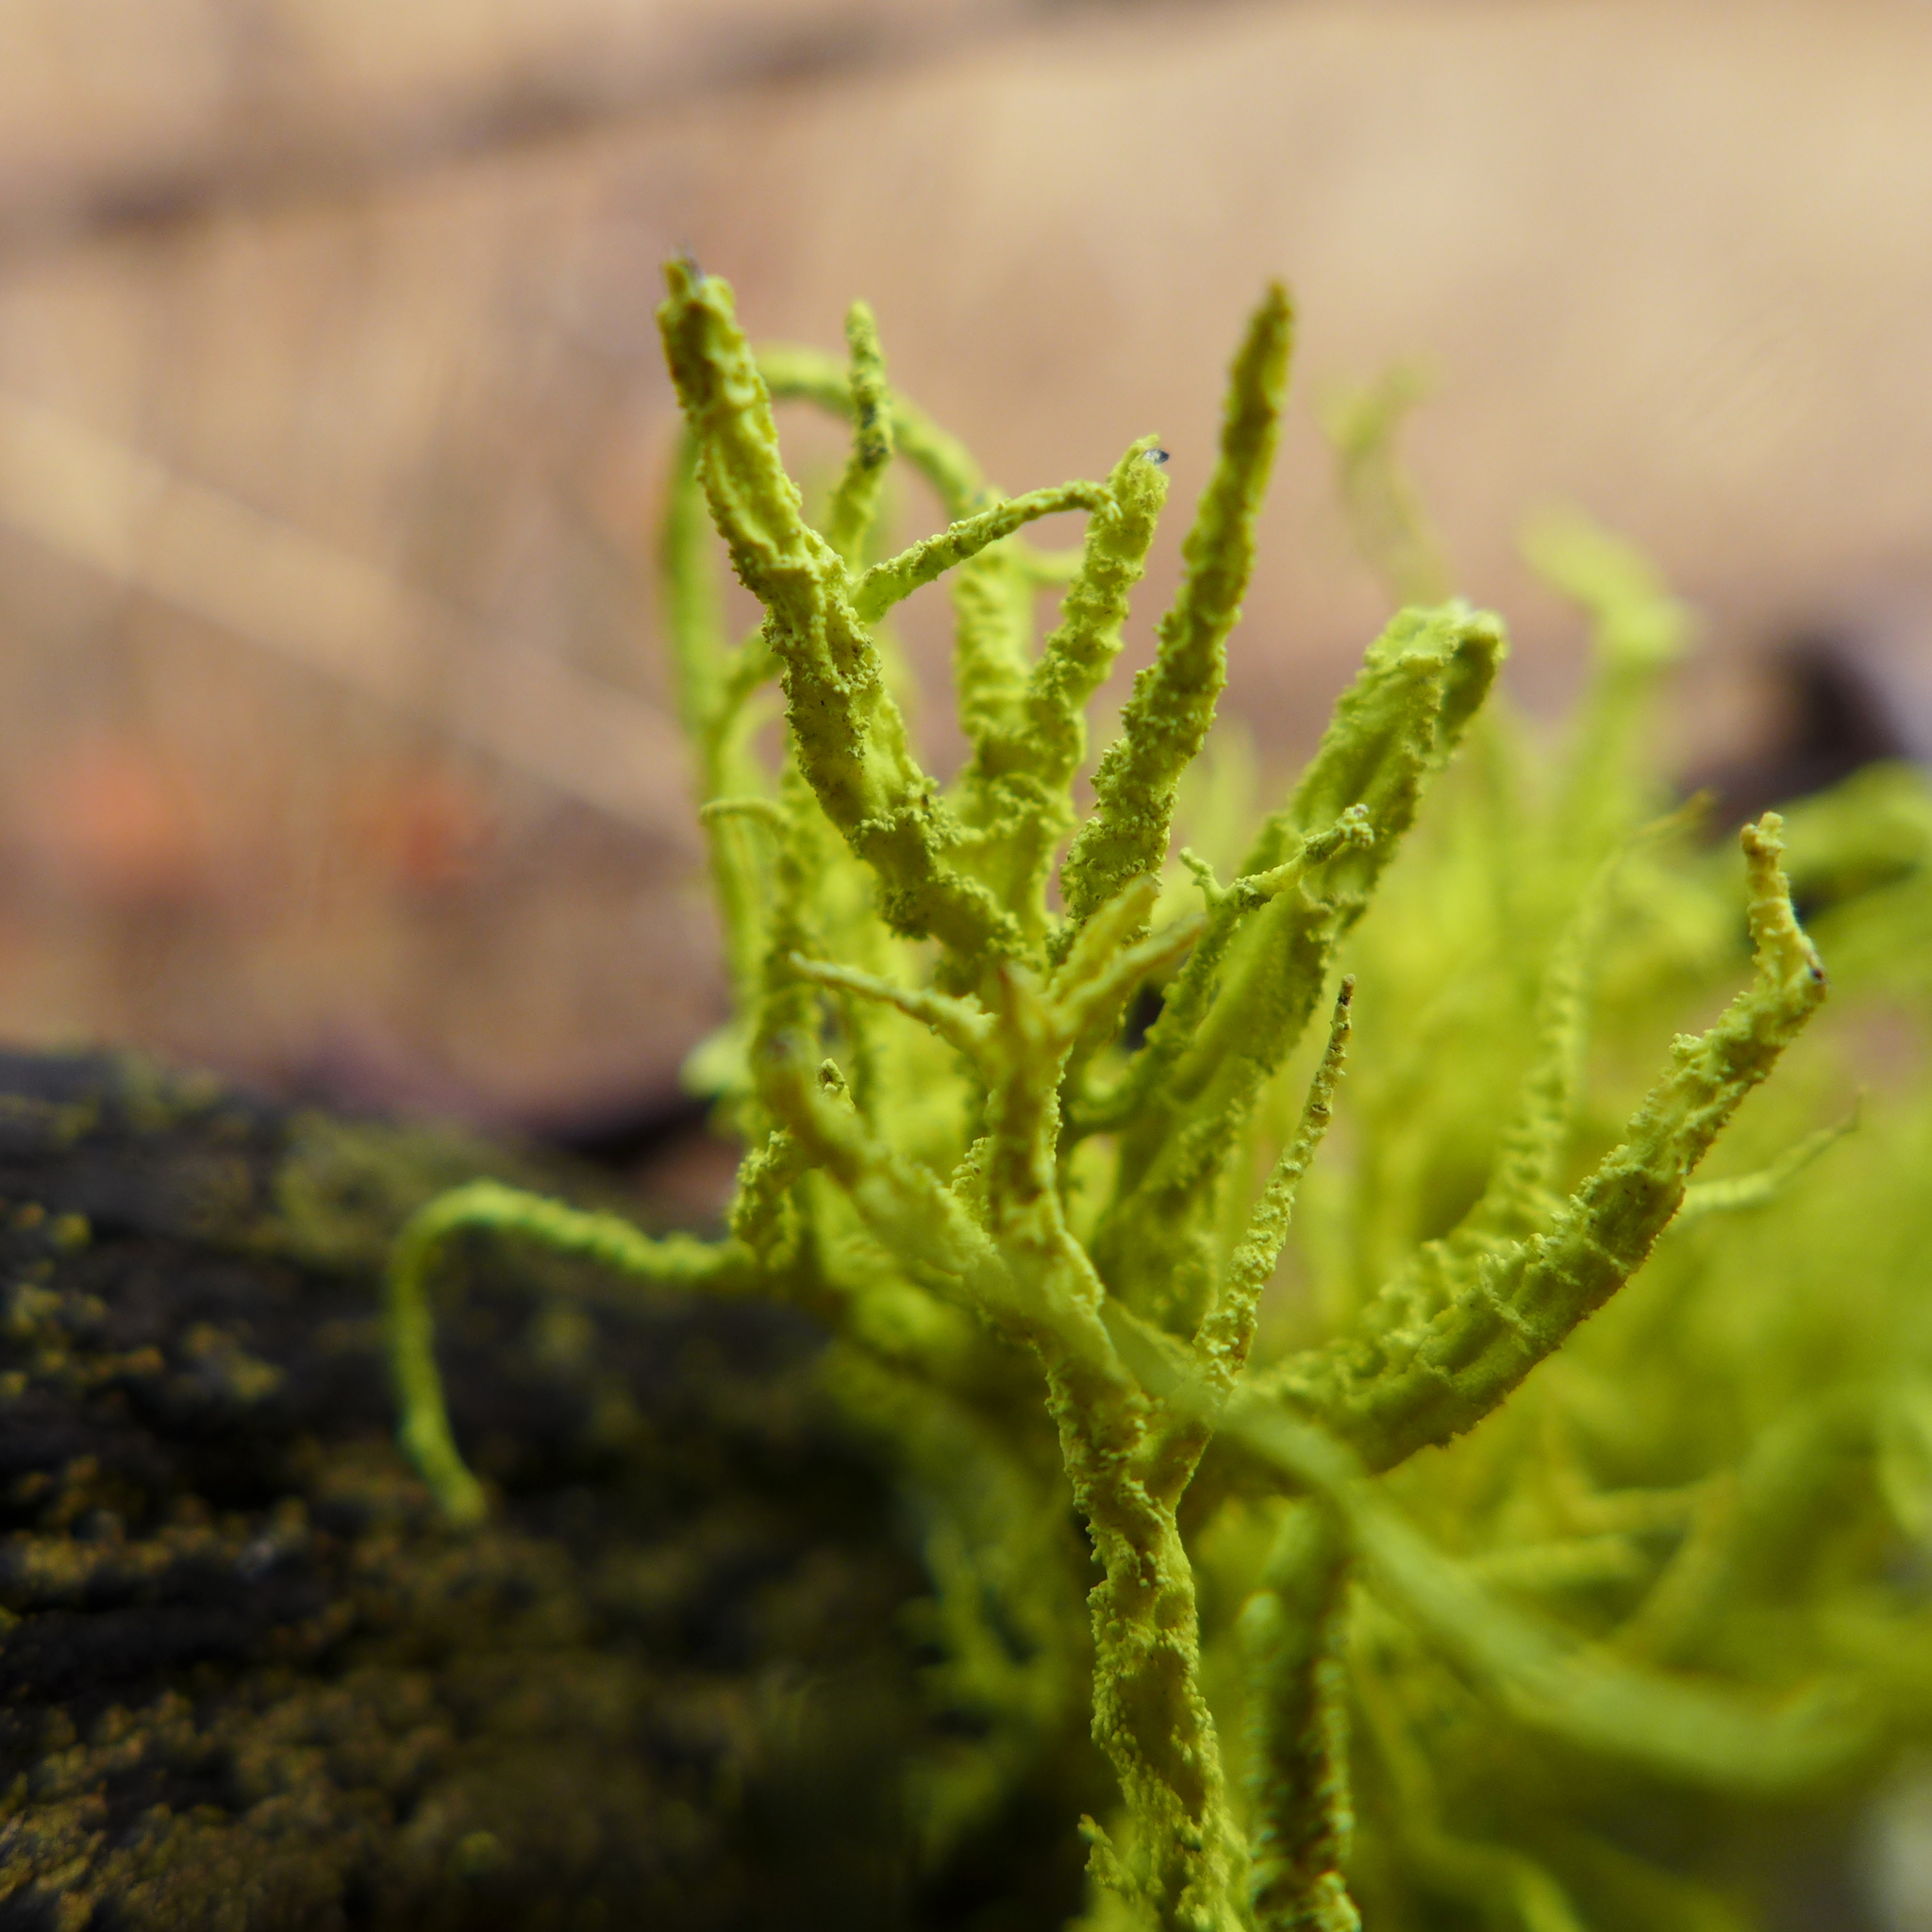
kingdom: Fungi
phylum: Ascomycota
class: Lecanoromycetes
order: Lecanorales
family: Parmeliaceae
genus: Letharia
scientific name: Letharia vulpina
